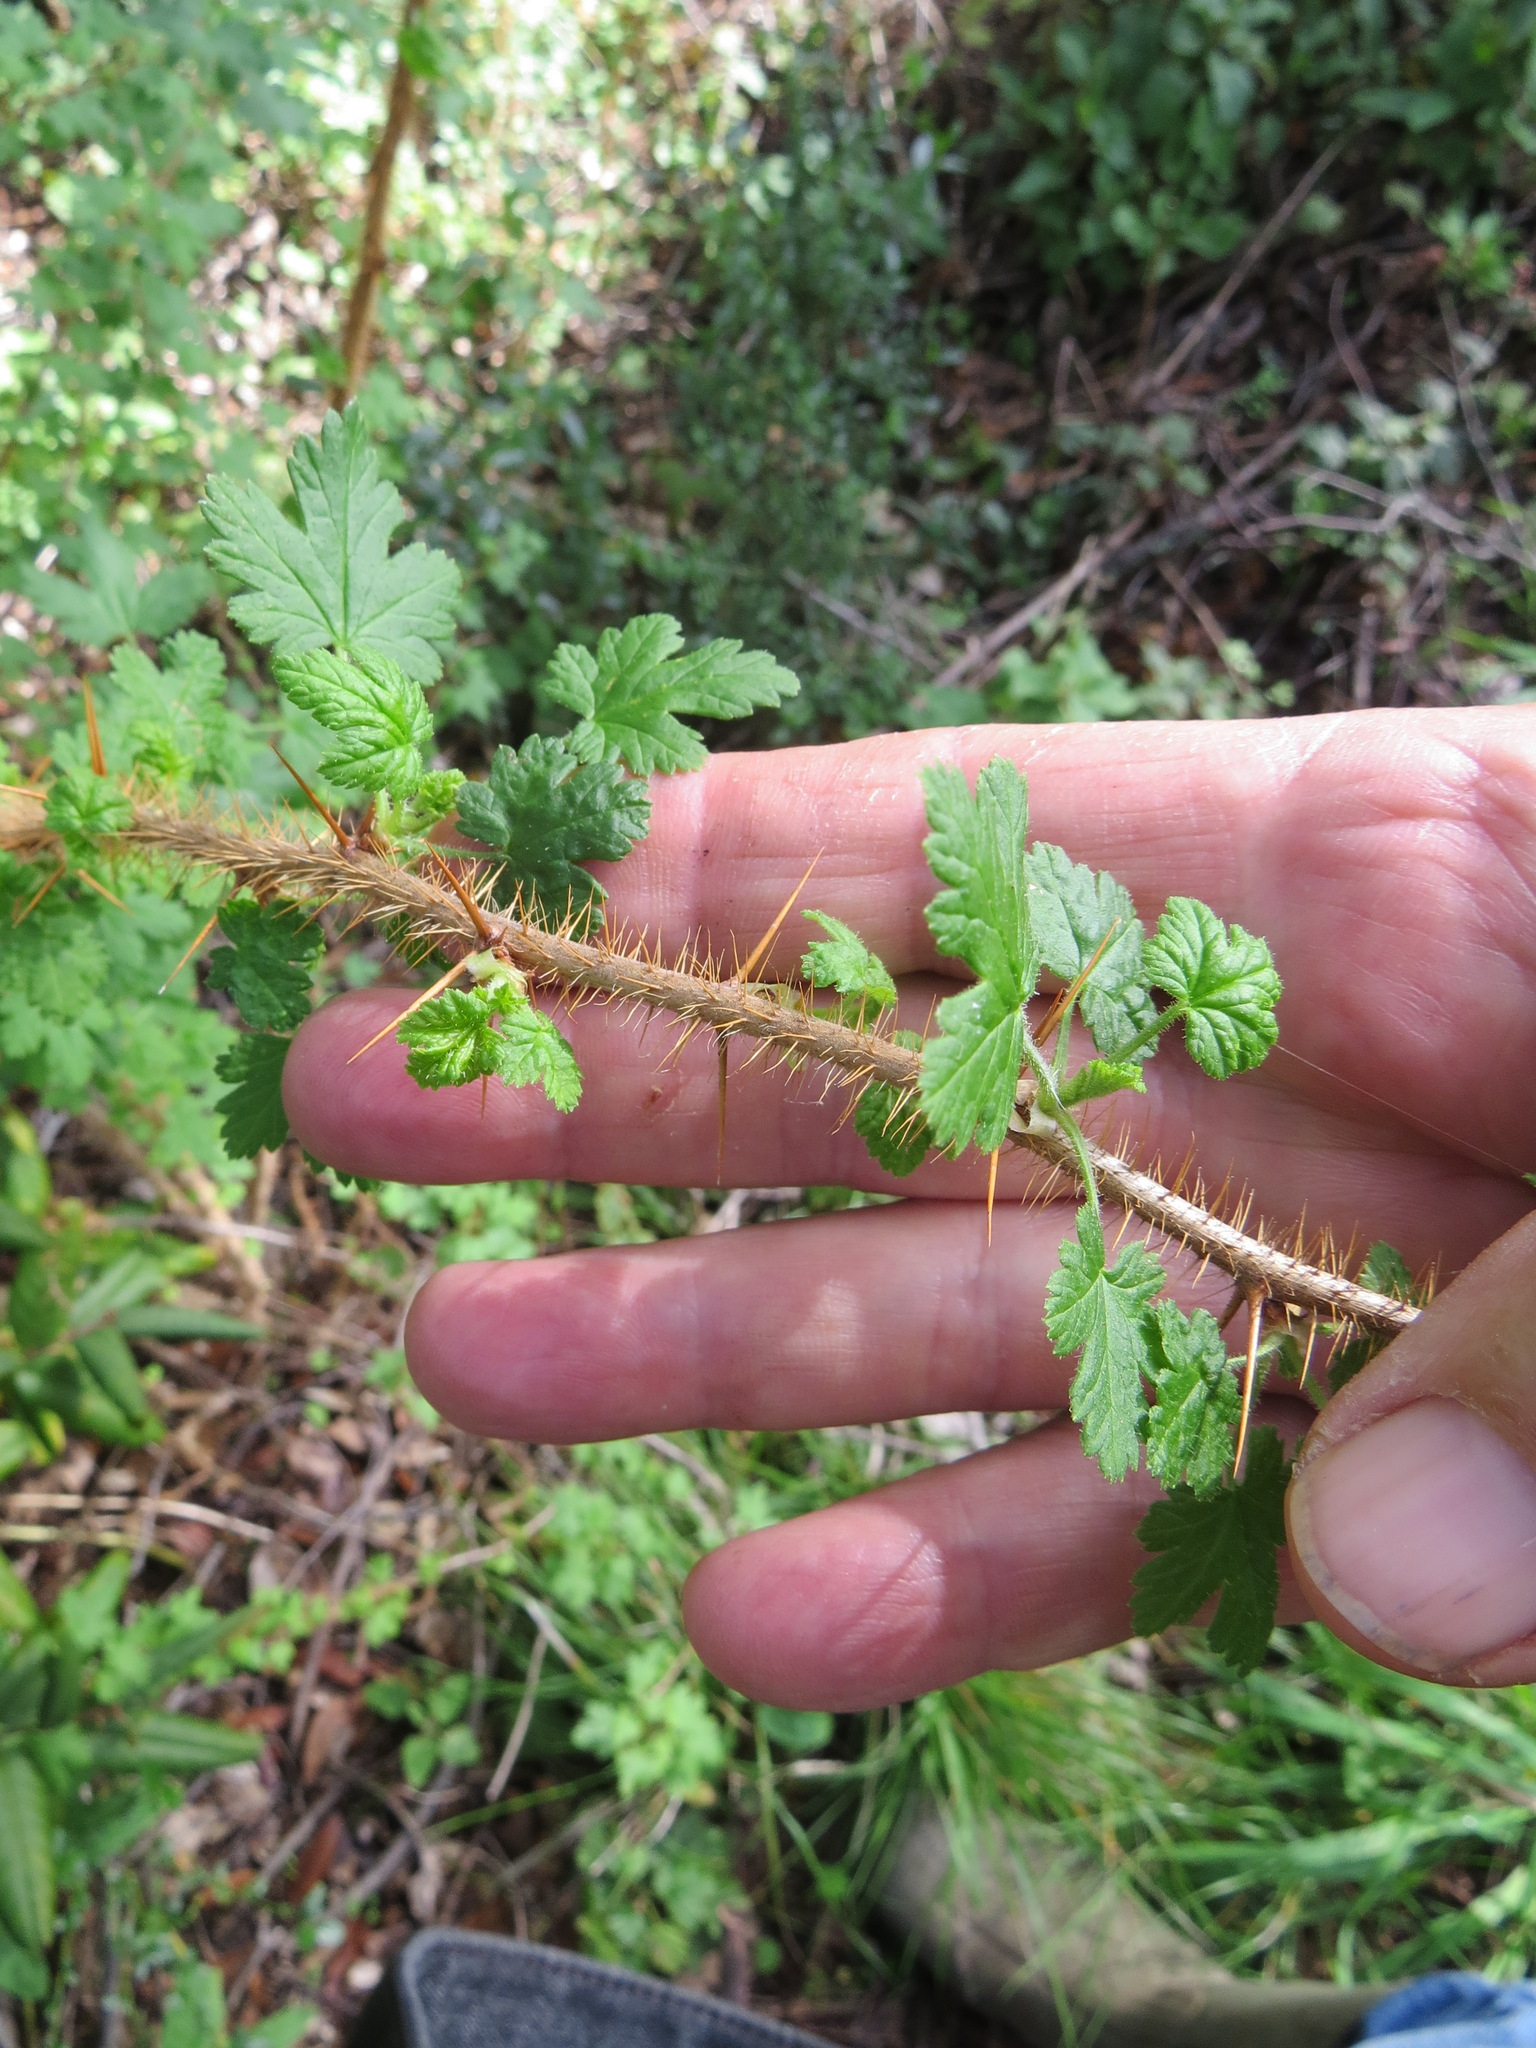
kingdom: Plantae
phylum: Tracheophyta
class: Magnoliopsida
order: Saxifragales
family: Grossulariaceae
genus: Ribes
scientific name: Ribes menziesii
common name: Canyon gooseberry
